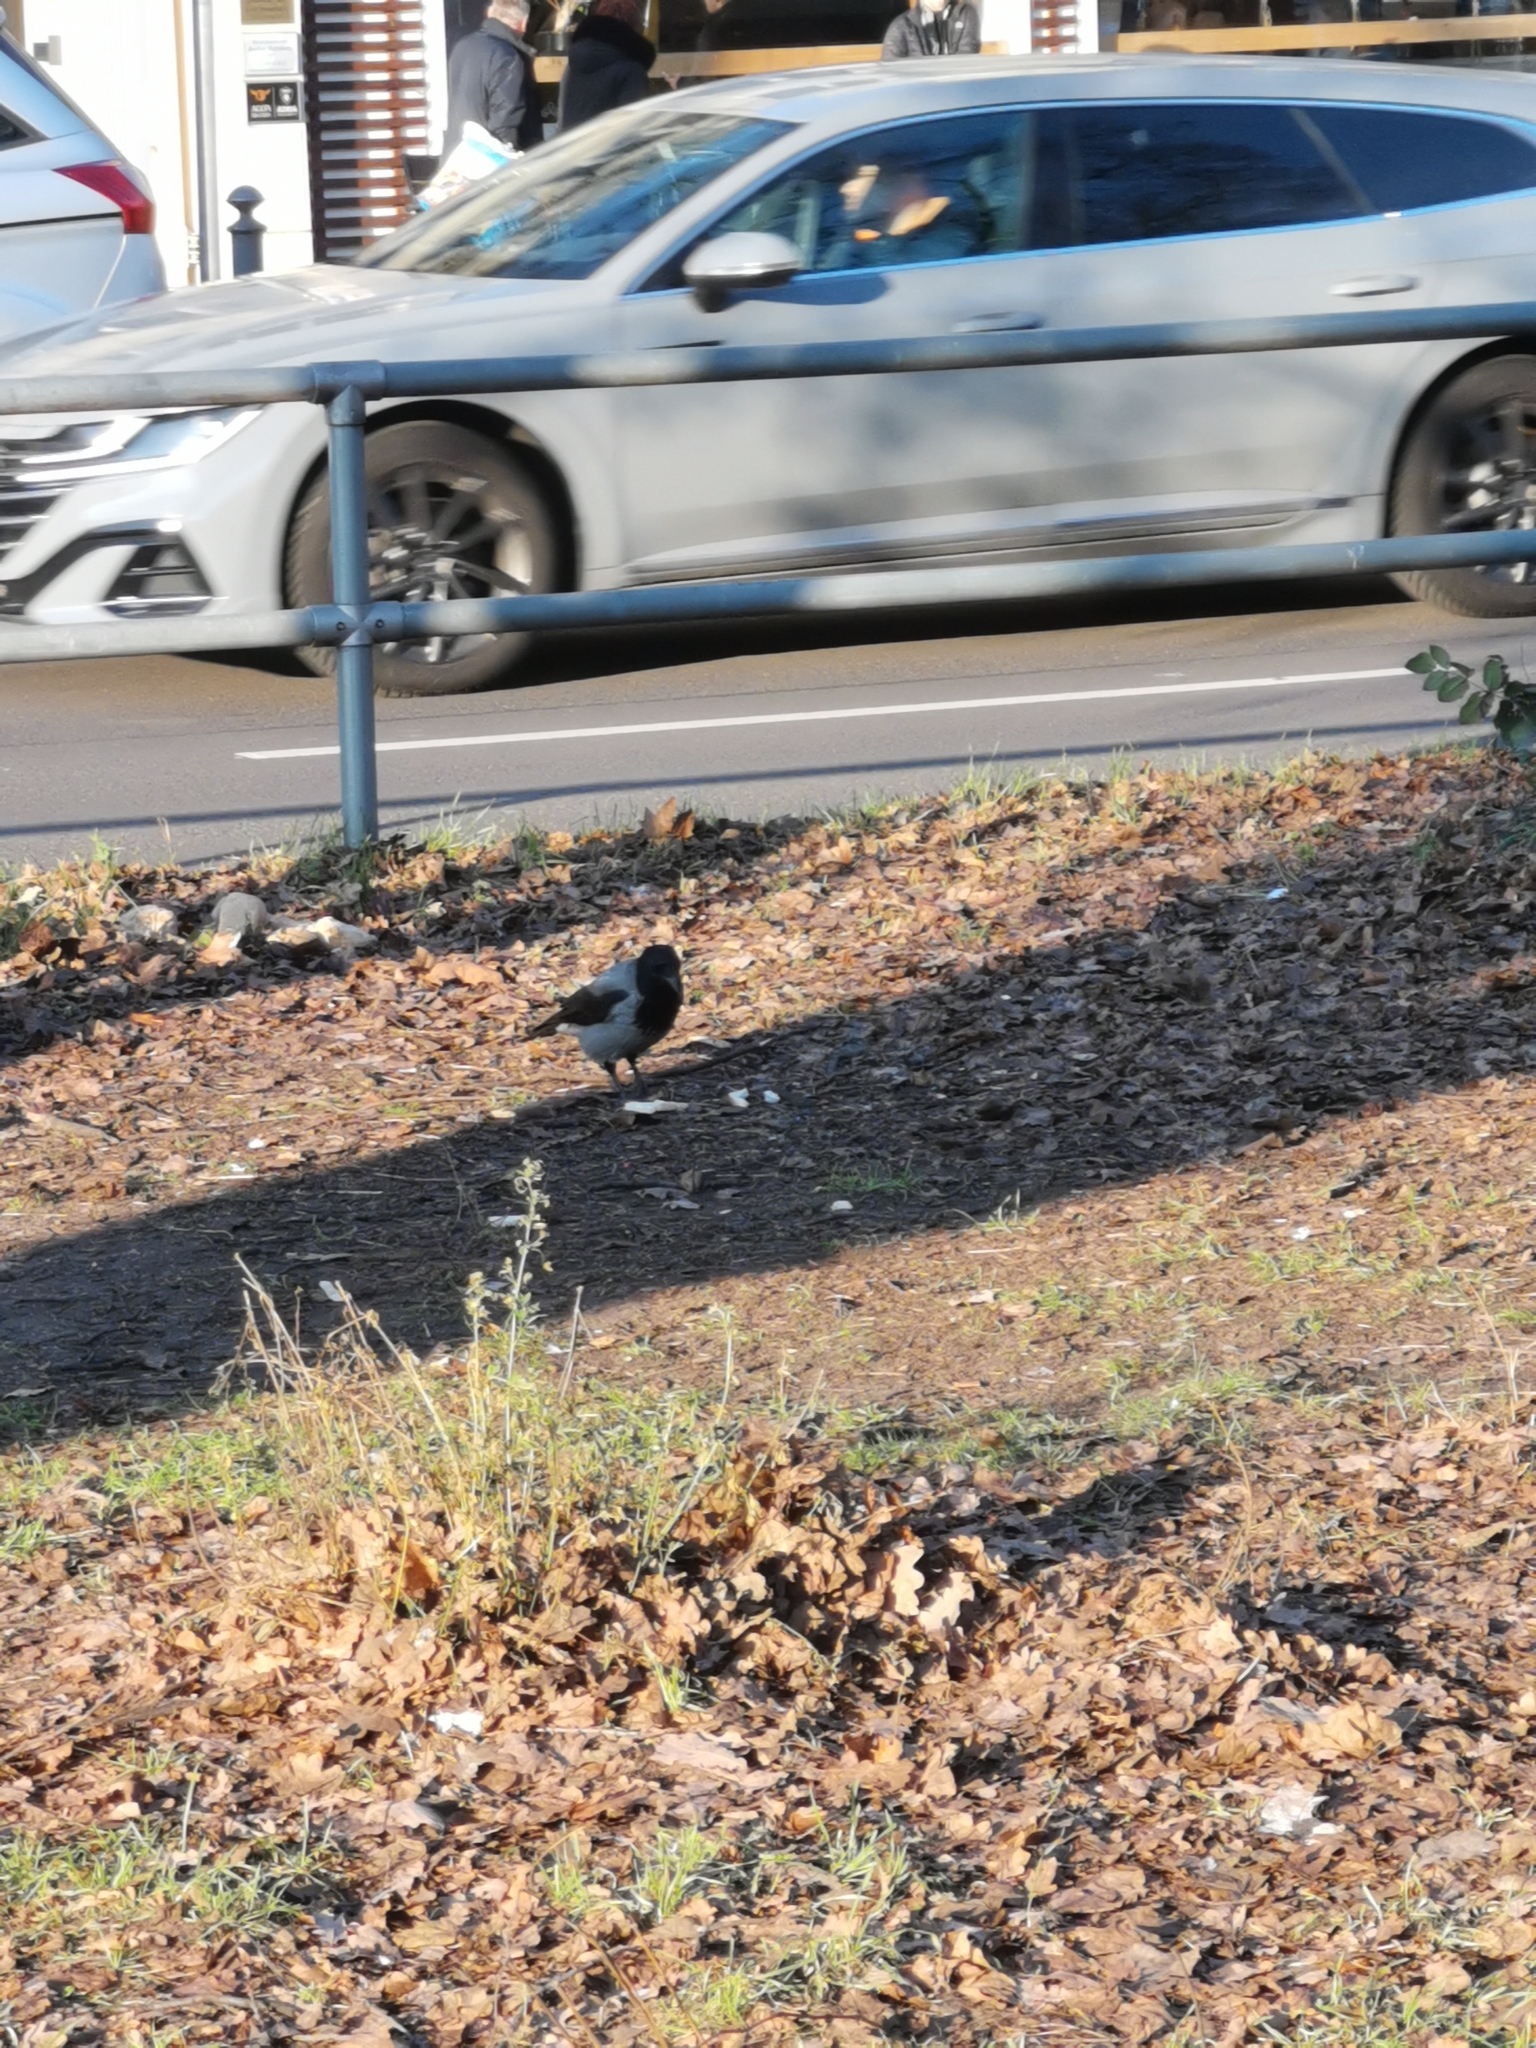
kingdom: Animalia
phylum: Chordata
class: Aves
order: Passeriformes
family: Corvidae
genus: Corvus
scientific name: Corvus cornix
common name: Hooded crow
